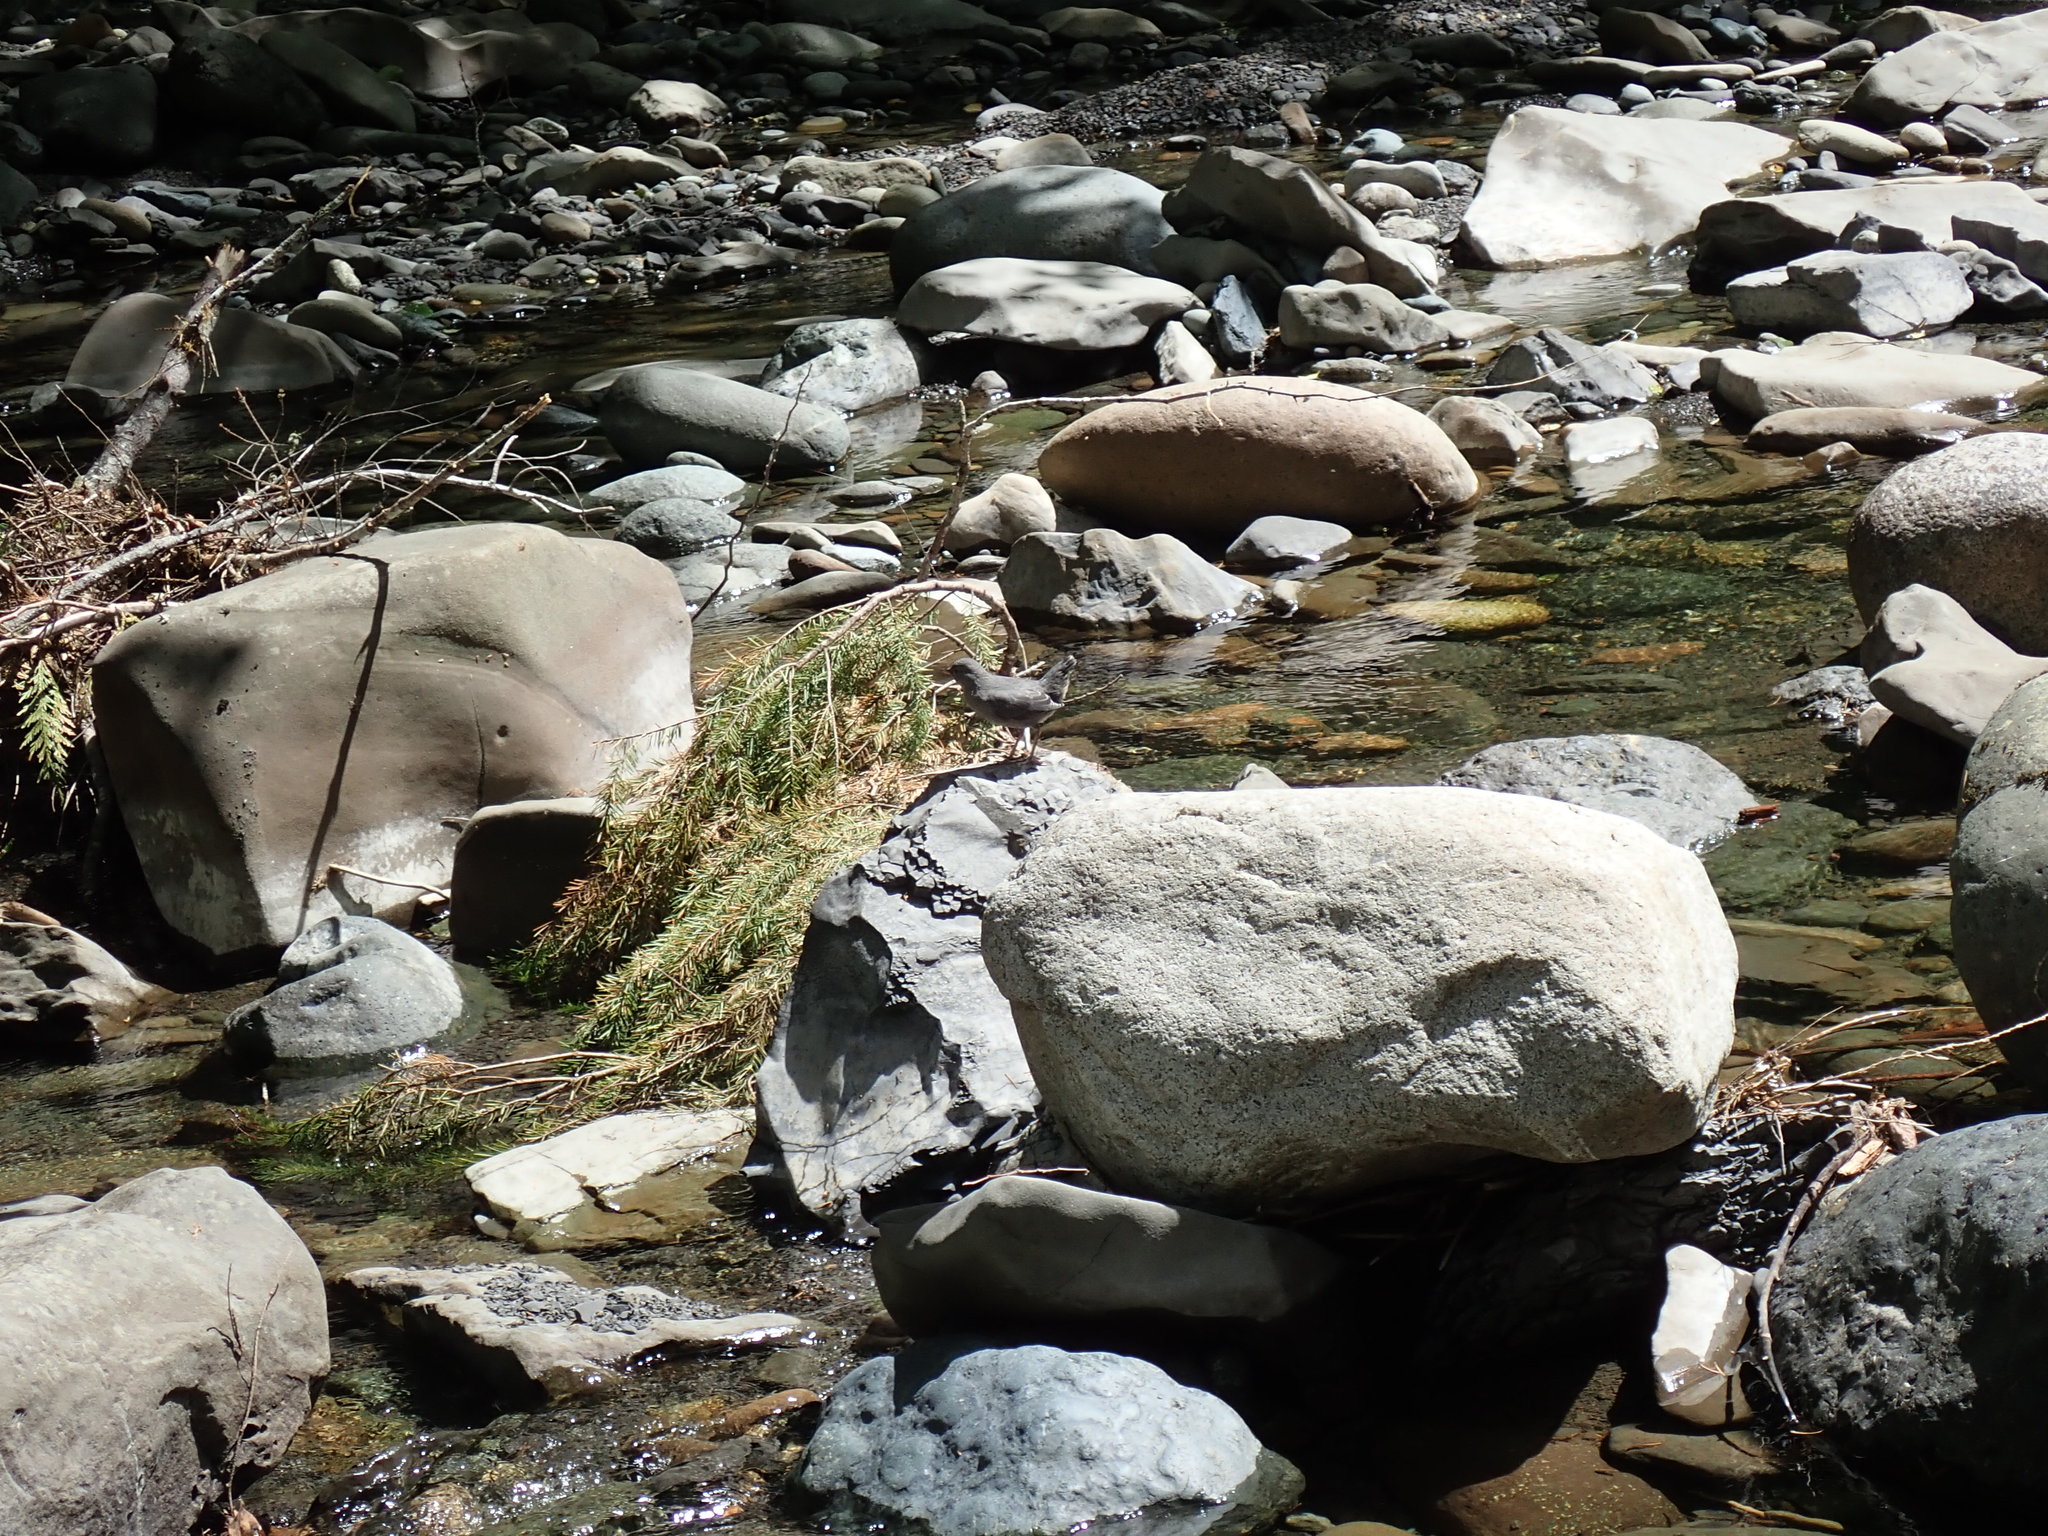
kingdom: Animalia
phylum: Chordata
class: Aves
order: Passeriformes
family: Cinclidae
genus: Cinclus
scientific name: Cinclus mexicanus
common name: American dipper
